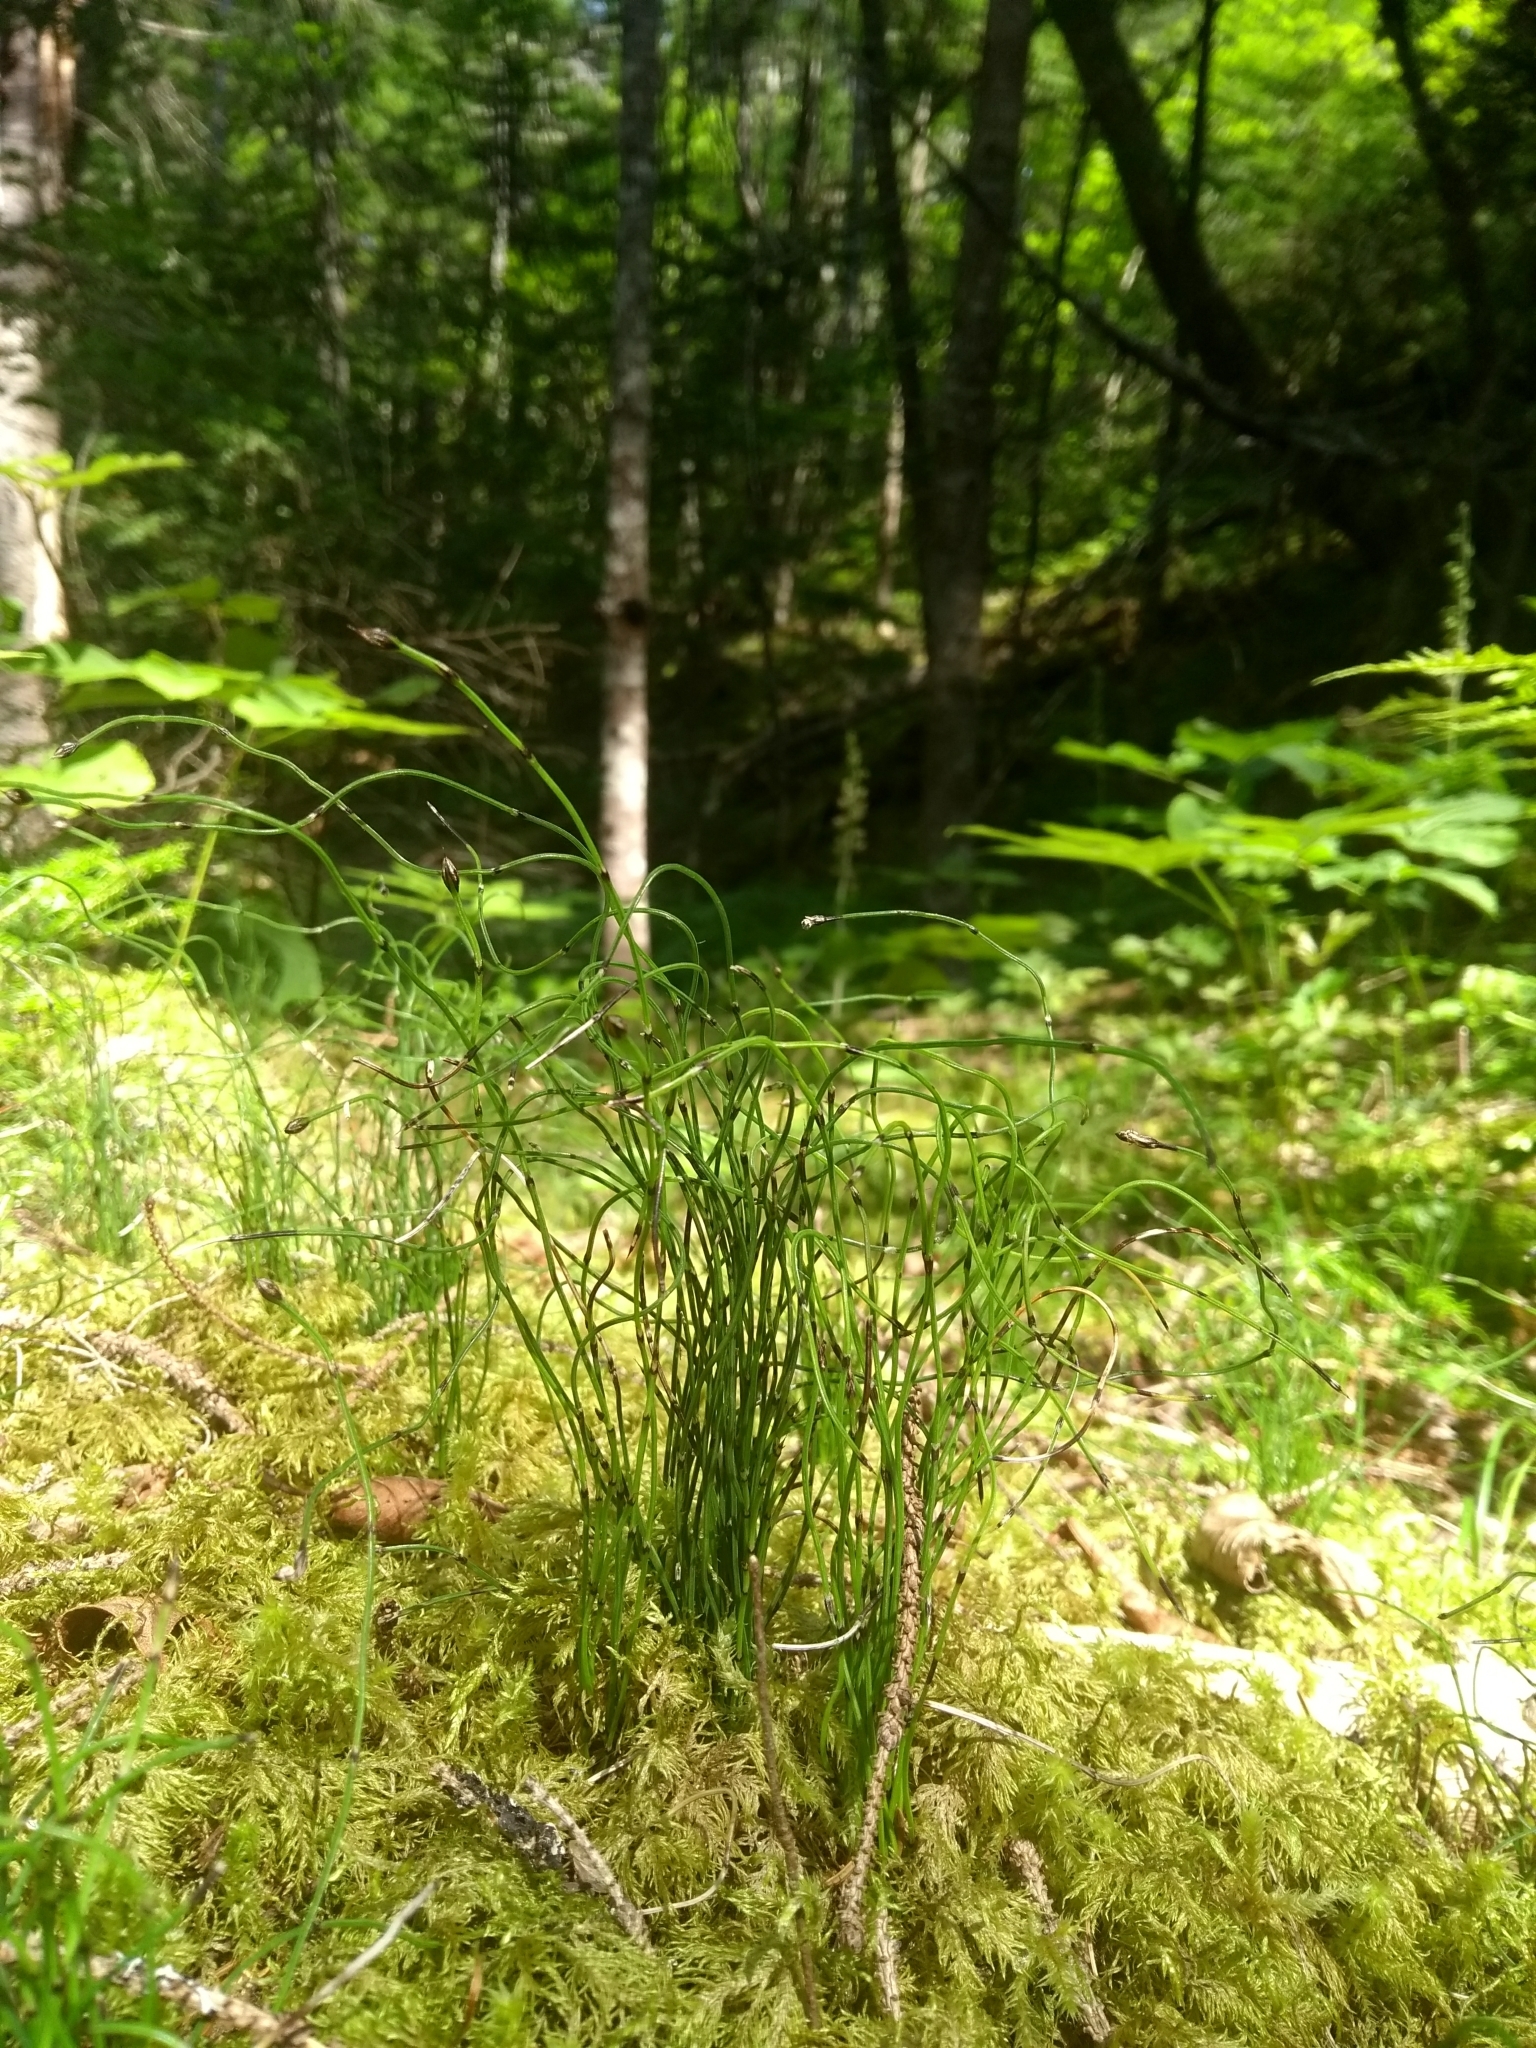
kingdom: Plantae
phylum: Tracheophyta
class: Polypodiopsida
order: Equisetales
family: Equisetaceae
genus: Equisetum
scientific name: Equisetum scirpoides
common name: Delicate horsetail
